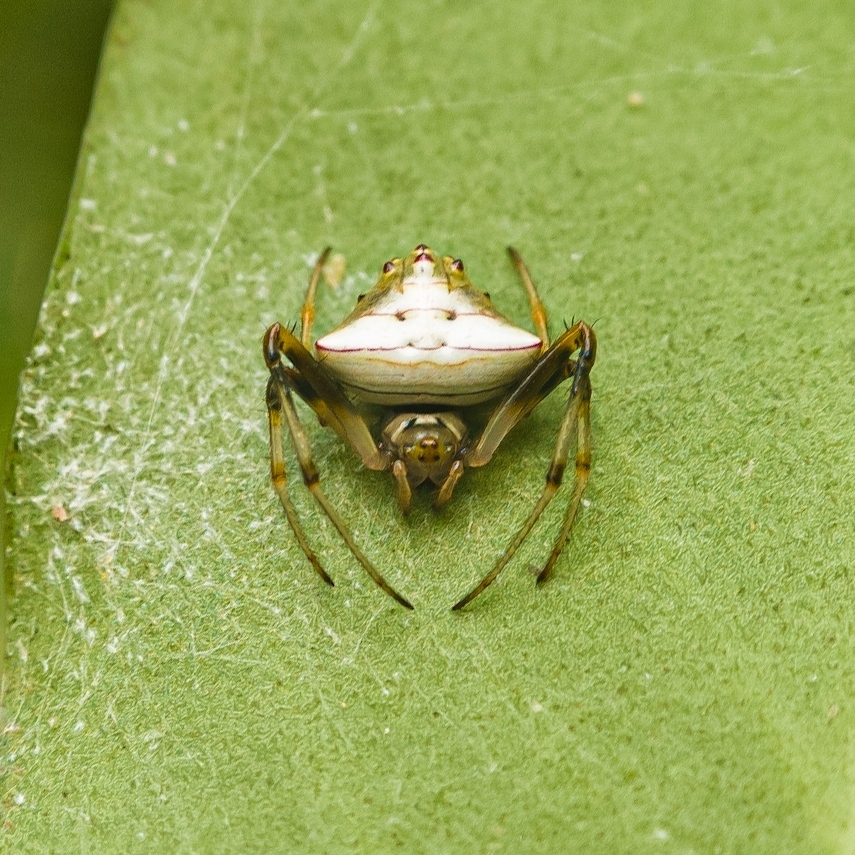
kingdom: Animalia
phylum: Arthropoda
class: Arachnida
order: Araneae
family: Araneidae
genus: Verrucosa
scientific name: Verrucosa undecimvariolata
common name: Orb weavers
